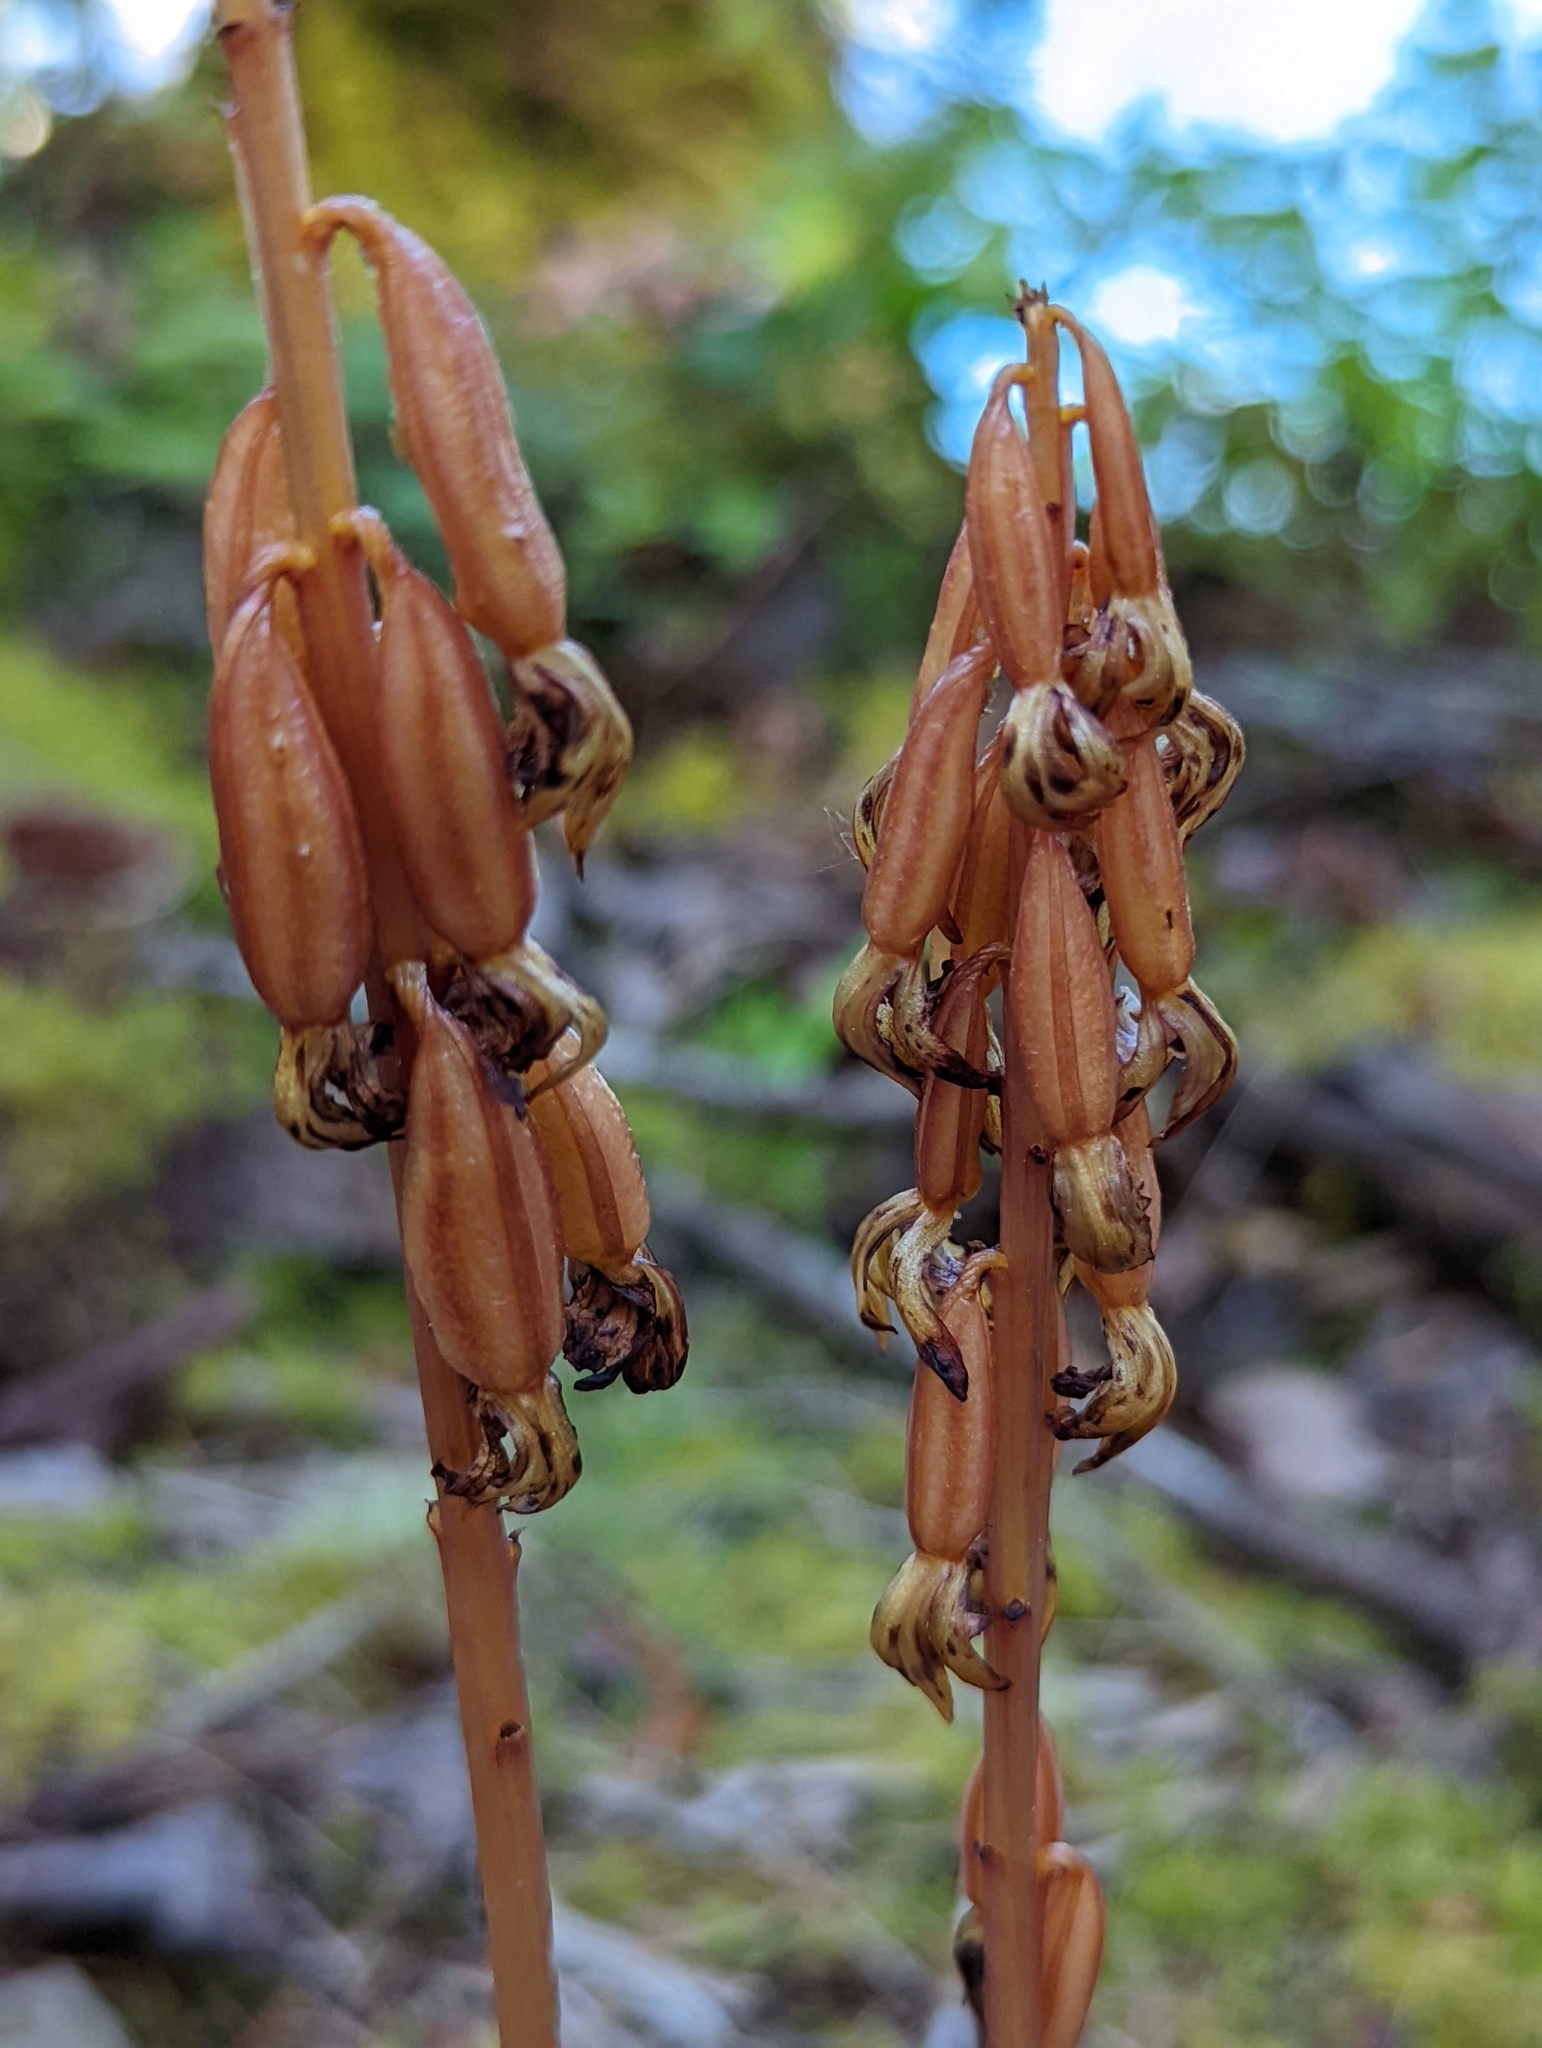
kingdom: Plantae
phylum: Tracheophyta
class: Liliopsida
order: Asparagales
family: Orchidaceae
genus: Corallorhiza
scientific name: Corallorhiza maculata
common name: Spotted coralroot
